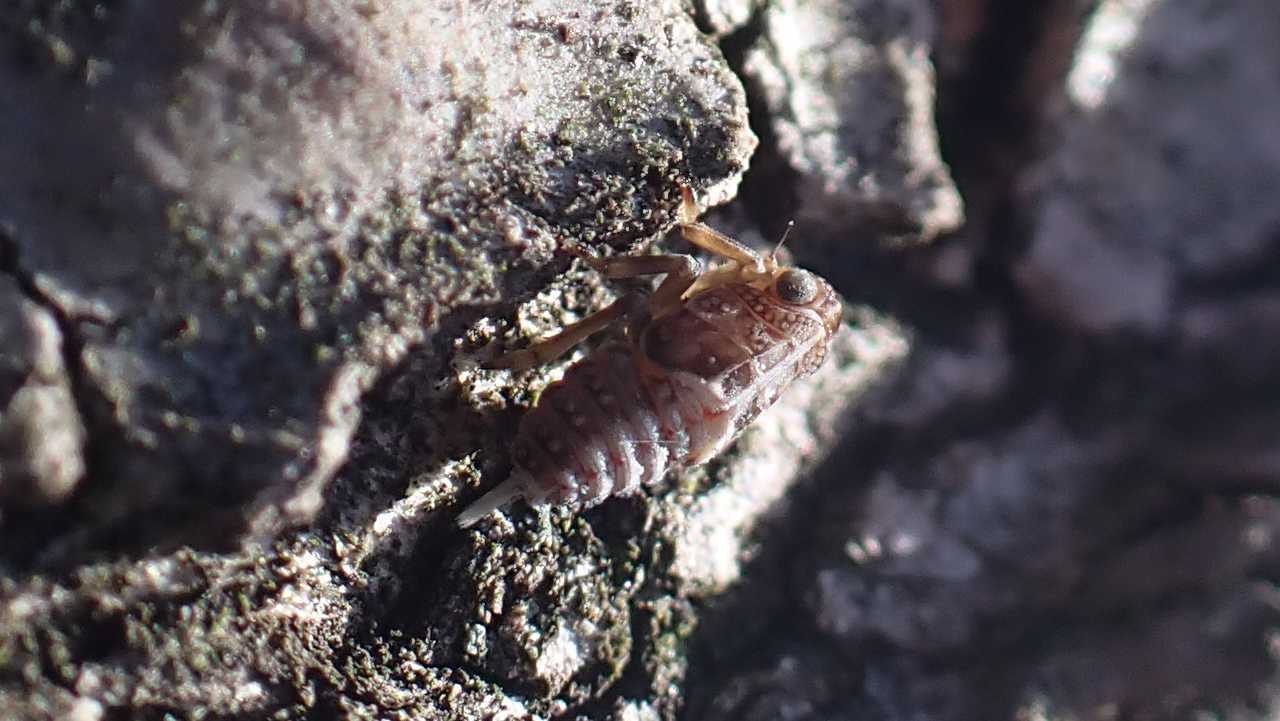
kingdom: Animalia
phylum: Arthropoda
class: Insecta
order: Hemiptera
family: Issidae
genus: Issus
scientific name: Issus
